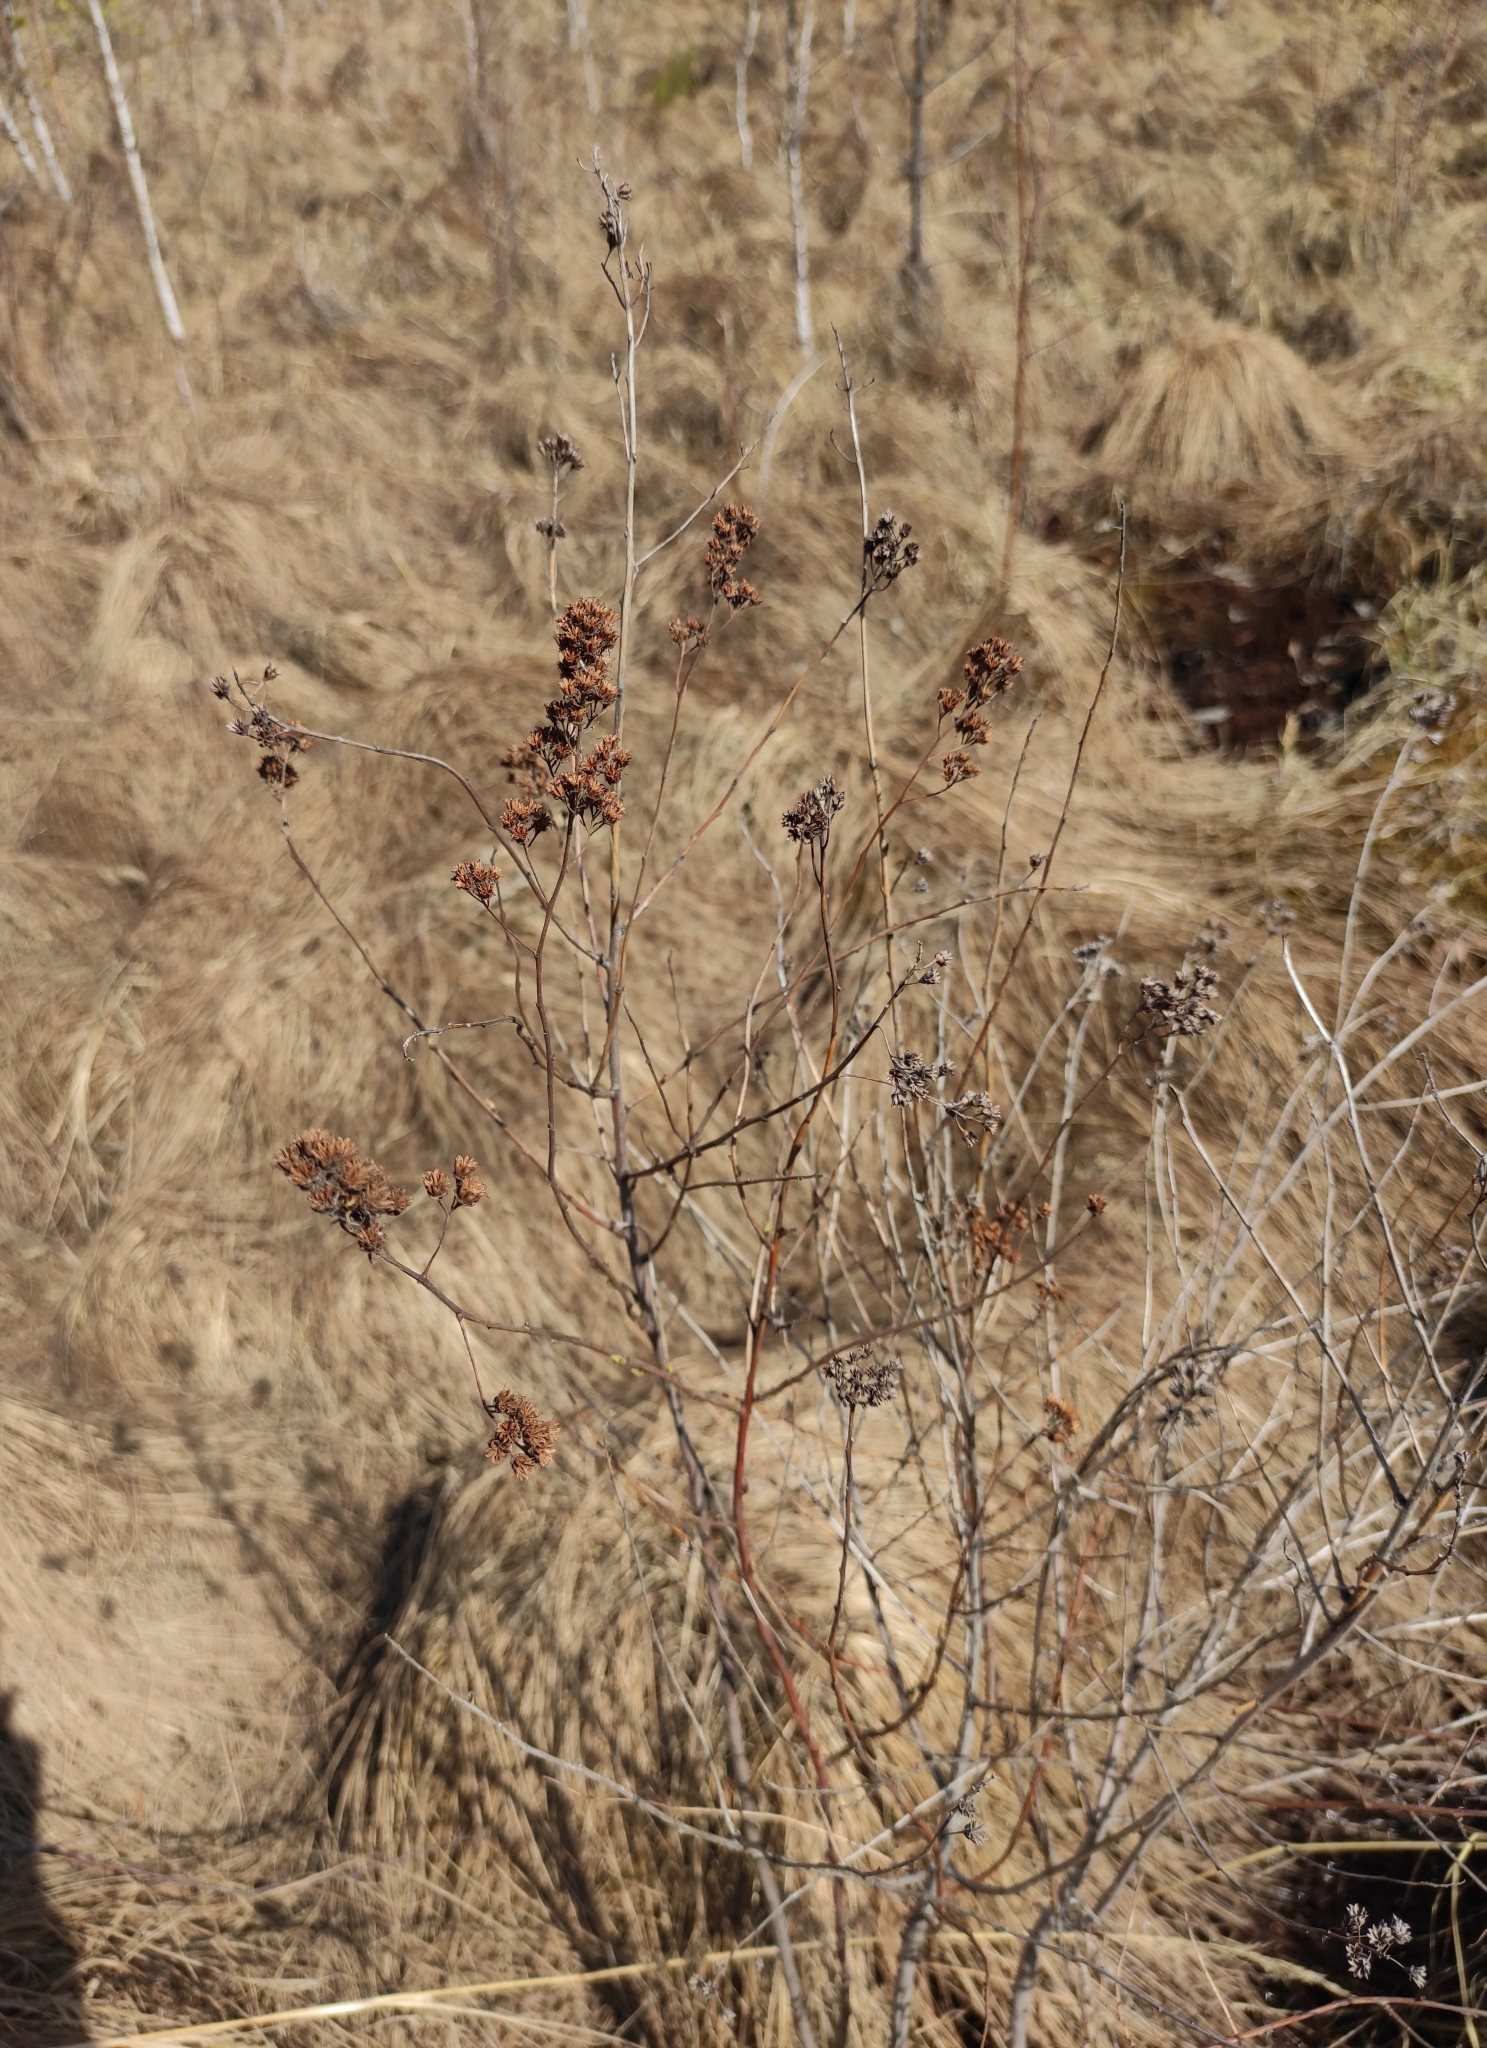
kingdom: Plantae
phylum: Tracheophyta
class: Magnoliopsida
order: Rosales
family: Rosaceae
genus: Spiraea
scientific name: Spiraea salicifolia
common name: Bridewort
